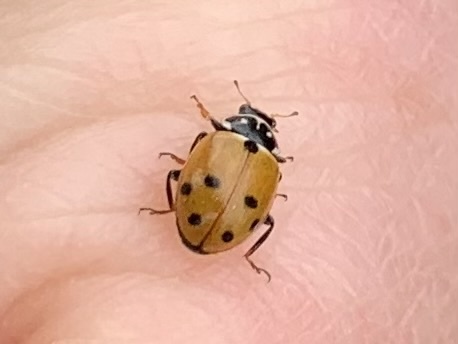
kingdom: Animalia
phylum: Arthropoda
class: Insecta
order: Coleoptera
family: Coccinellidae
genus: Hippodamia
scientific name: Hippodamia variegata
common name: Ladybird beetle
